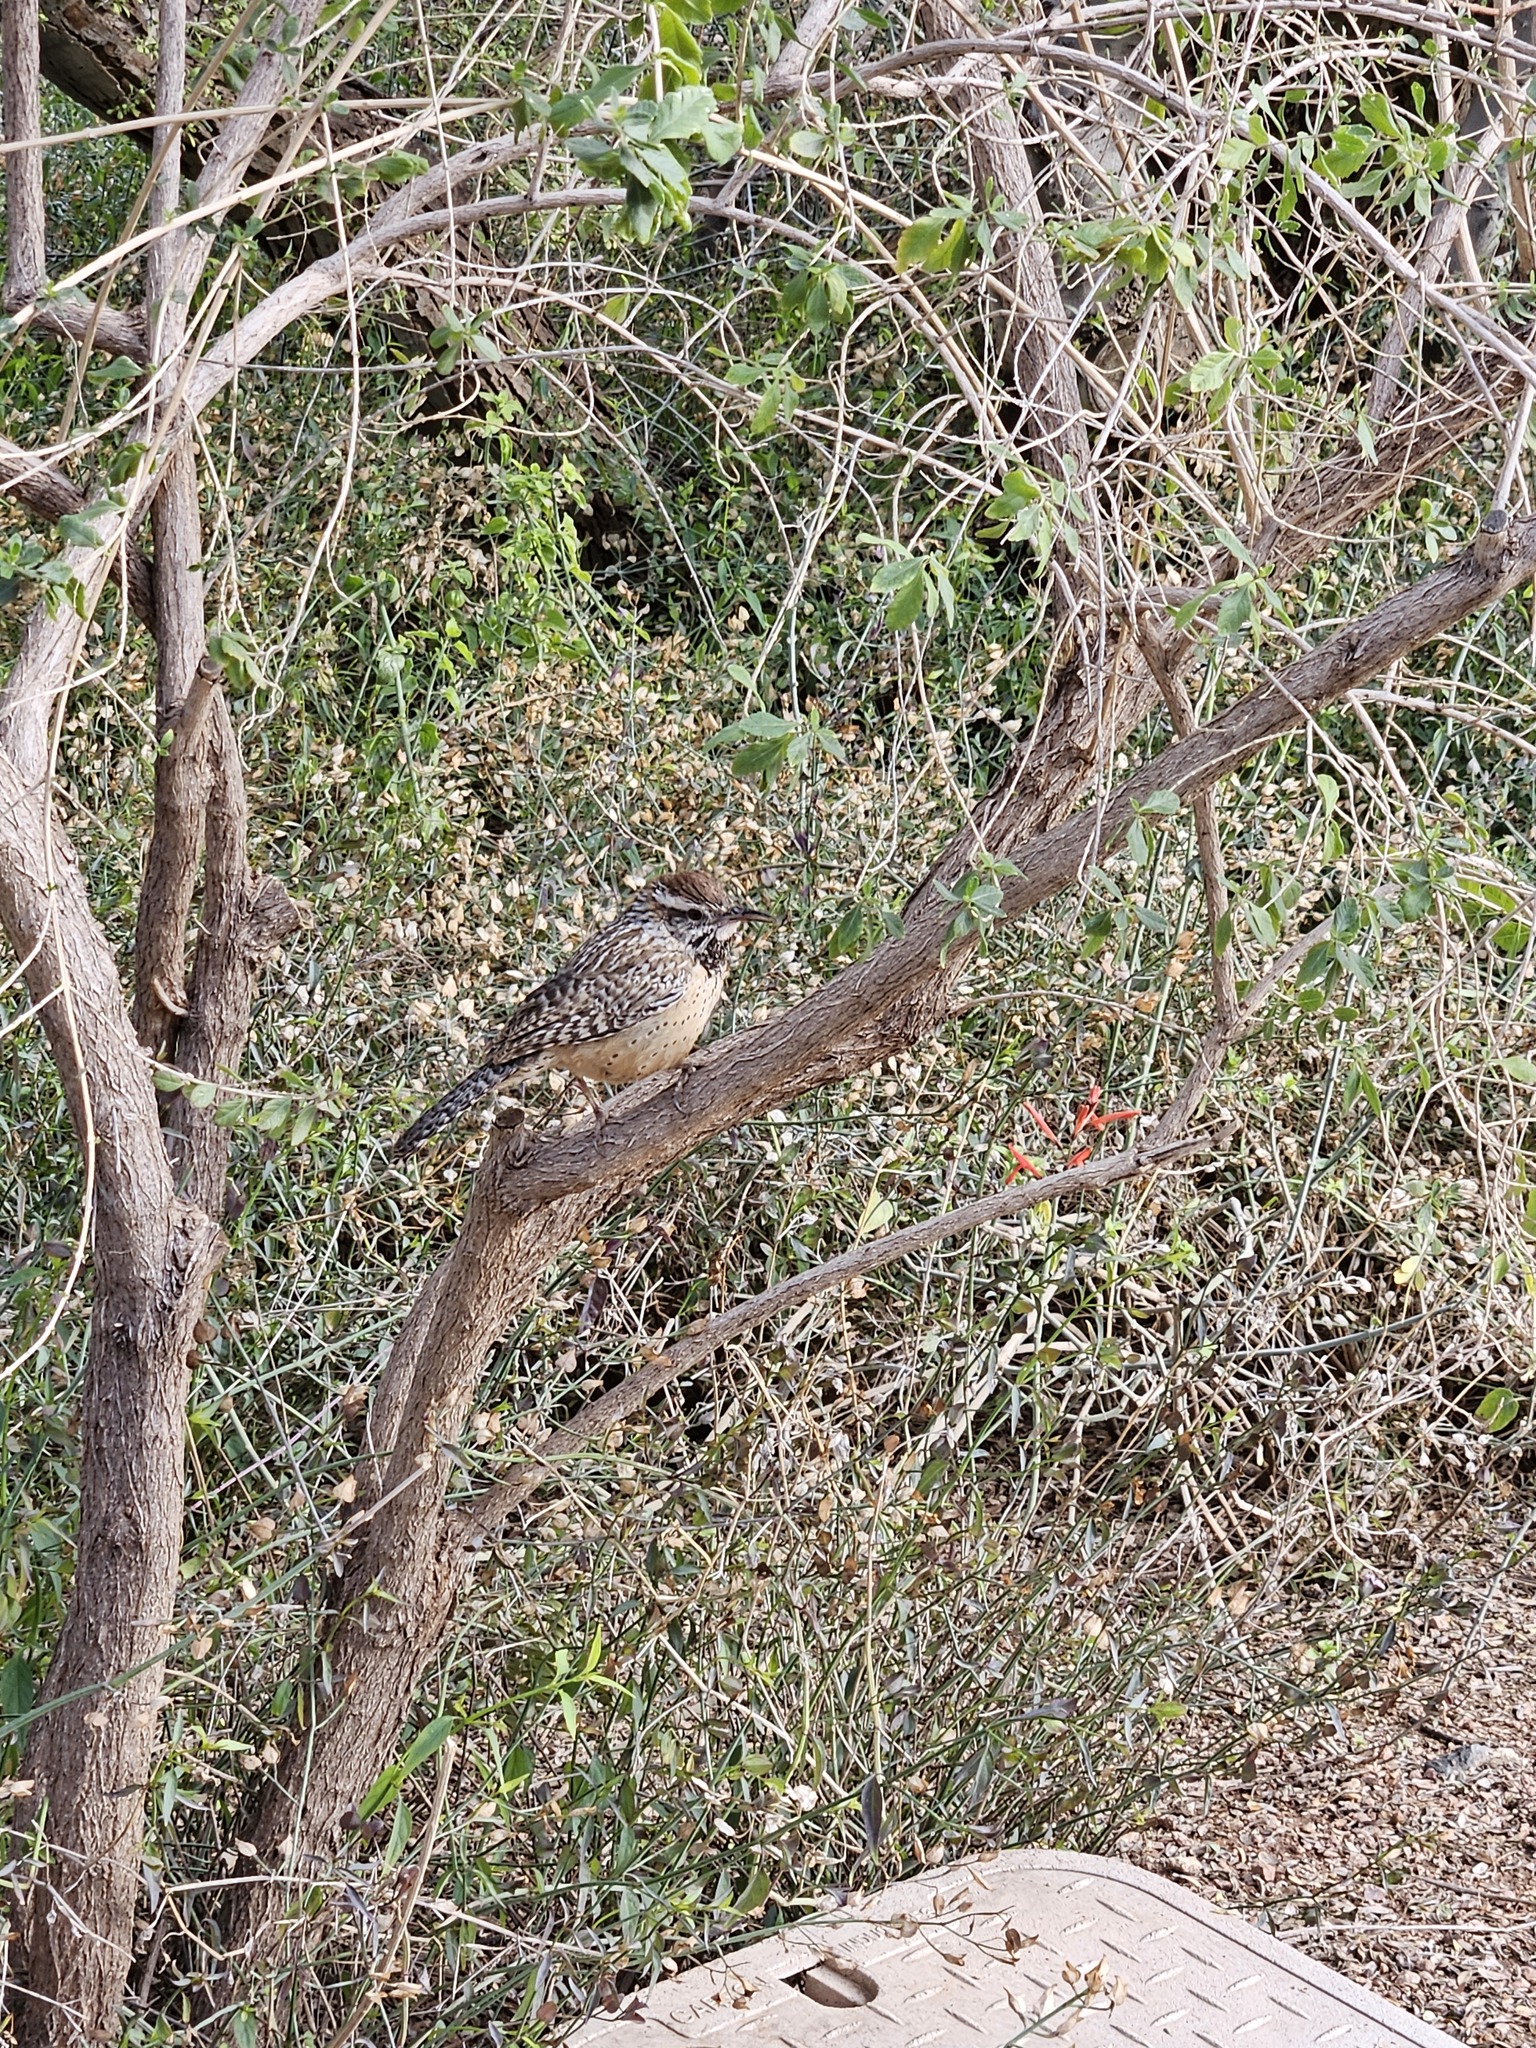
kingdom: Animalia
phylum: Chordata
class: Aves
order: Passeriformes
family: Troglodytidae
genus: Campylorhynchus
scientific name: Campylorhynchus brunneicapillus
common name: Cactus wren
